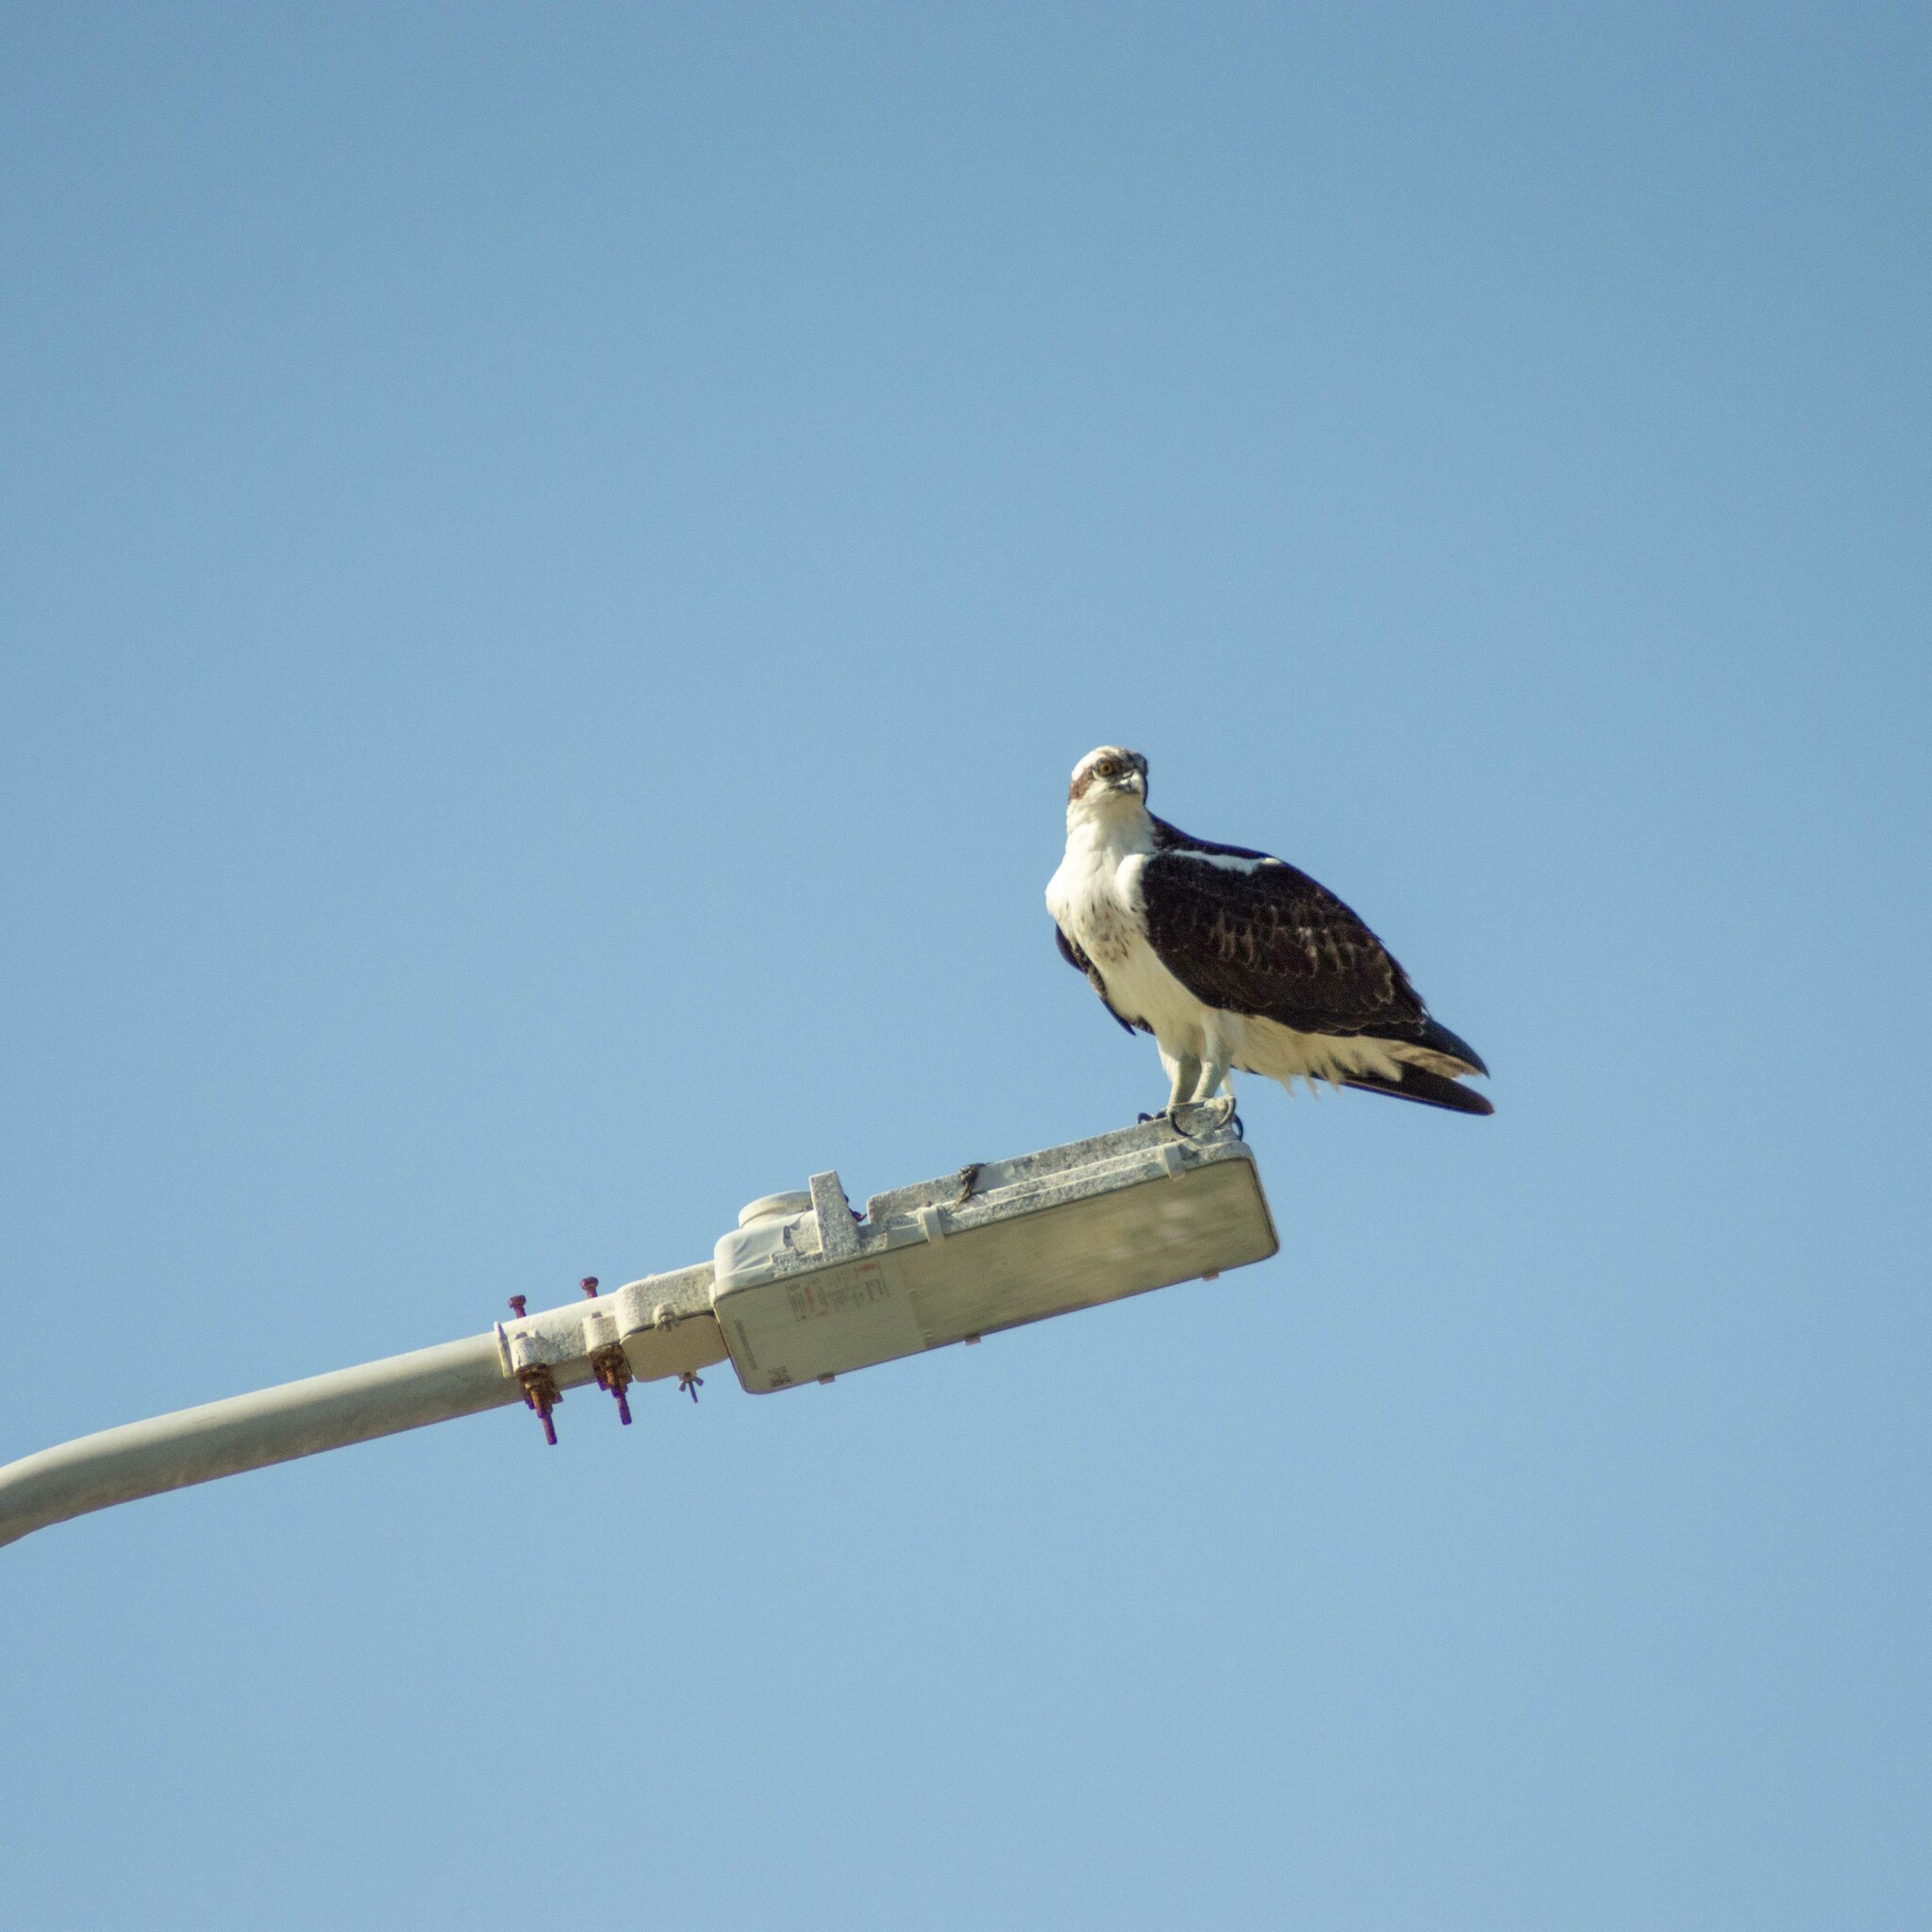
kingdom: Animalia
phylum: Chordata
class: Aves
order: Accipitriformes
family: Pandionidae
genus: Pandion
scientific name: Pandion haliaetus
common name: Osprey
